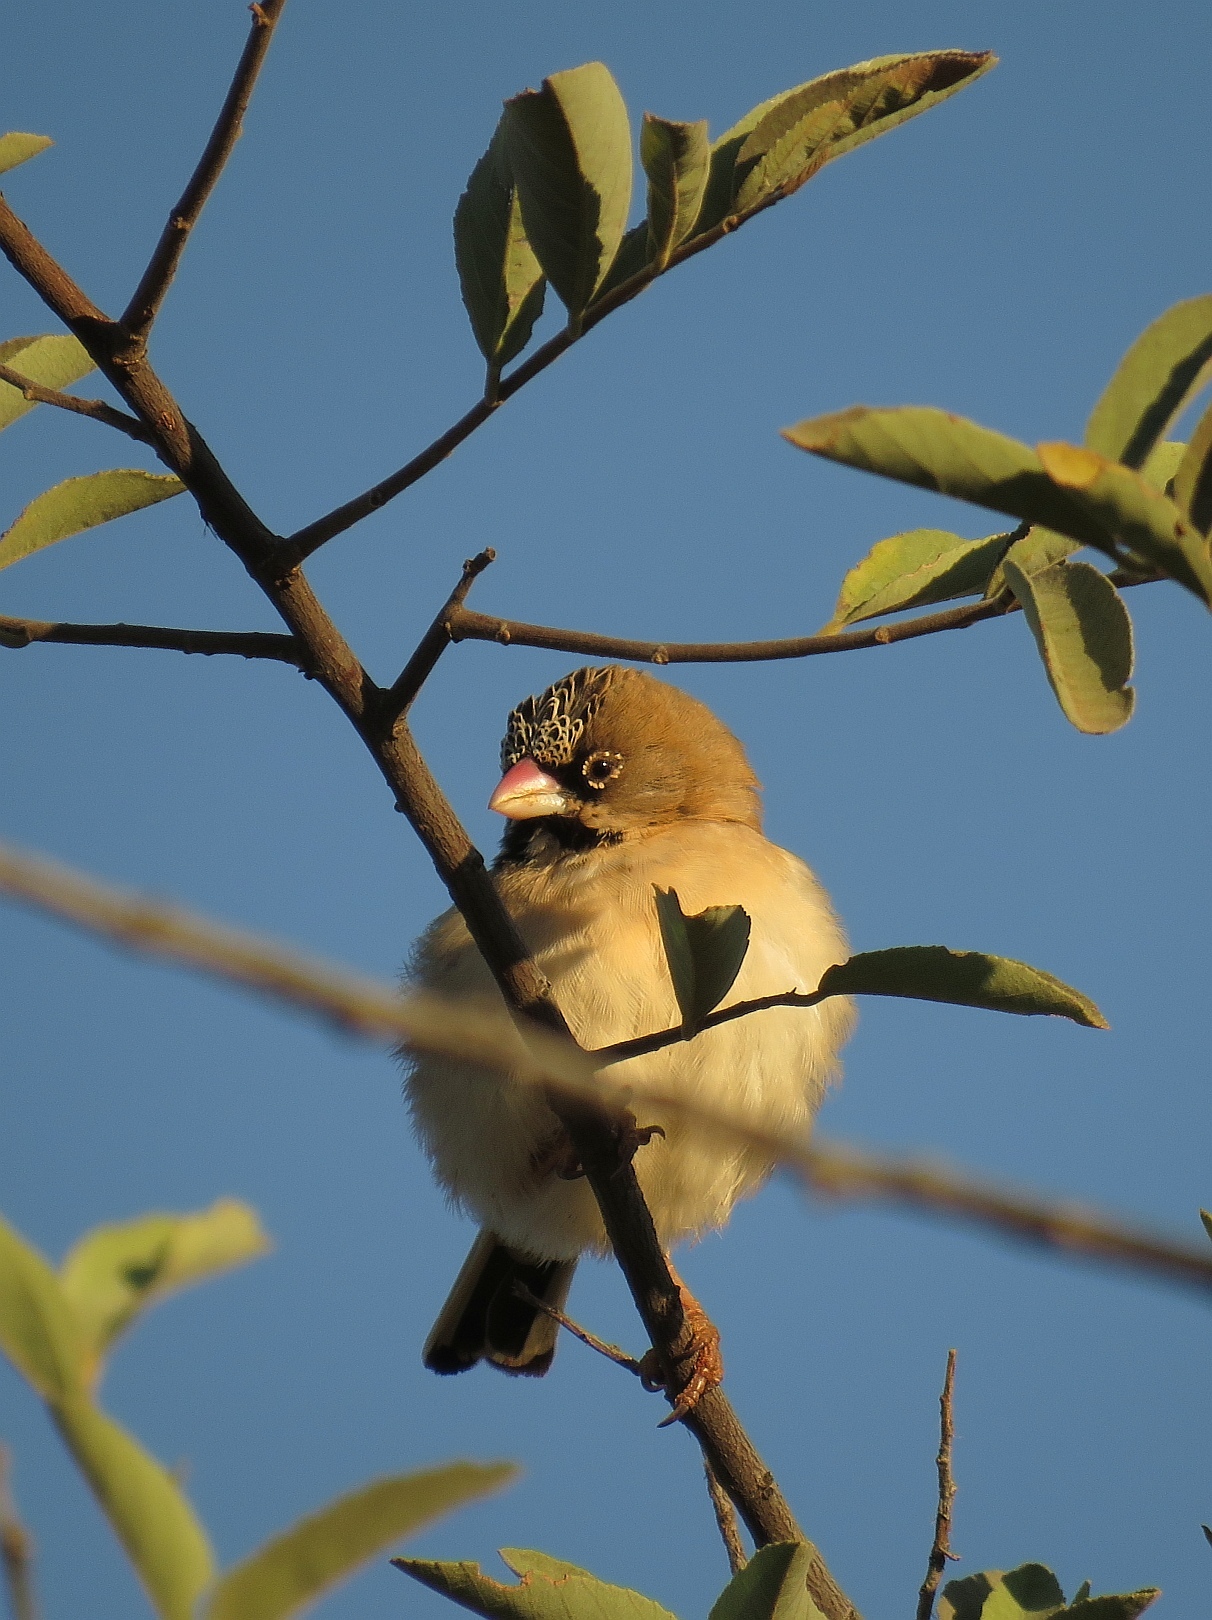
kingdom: Animalia
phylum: Chordata
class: Aves
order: Passeriformes
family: Ploceidae
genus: Sporopipes
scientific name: Sporopipes squamifrons
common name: Scaly-feathered weaver
